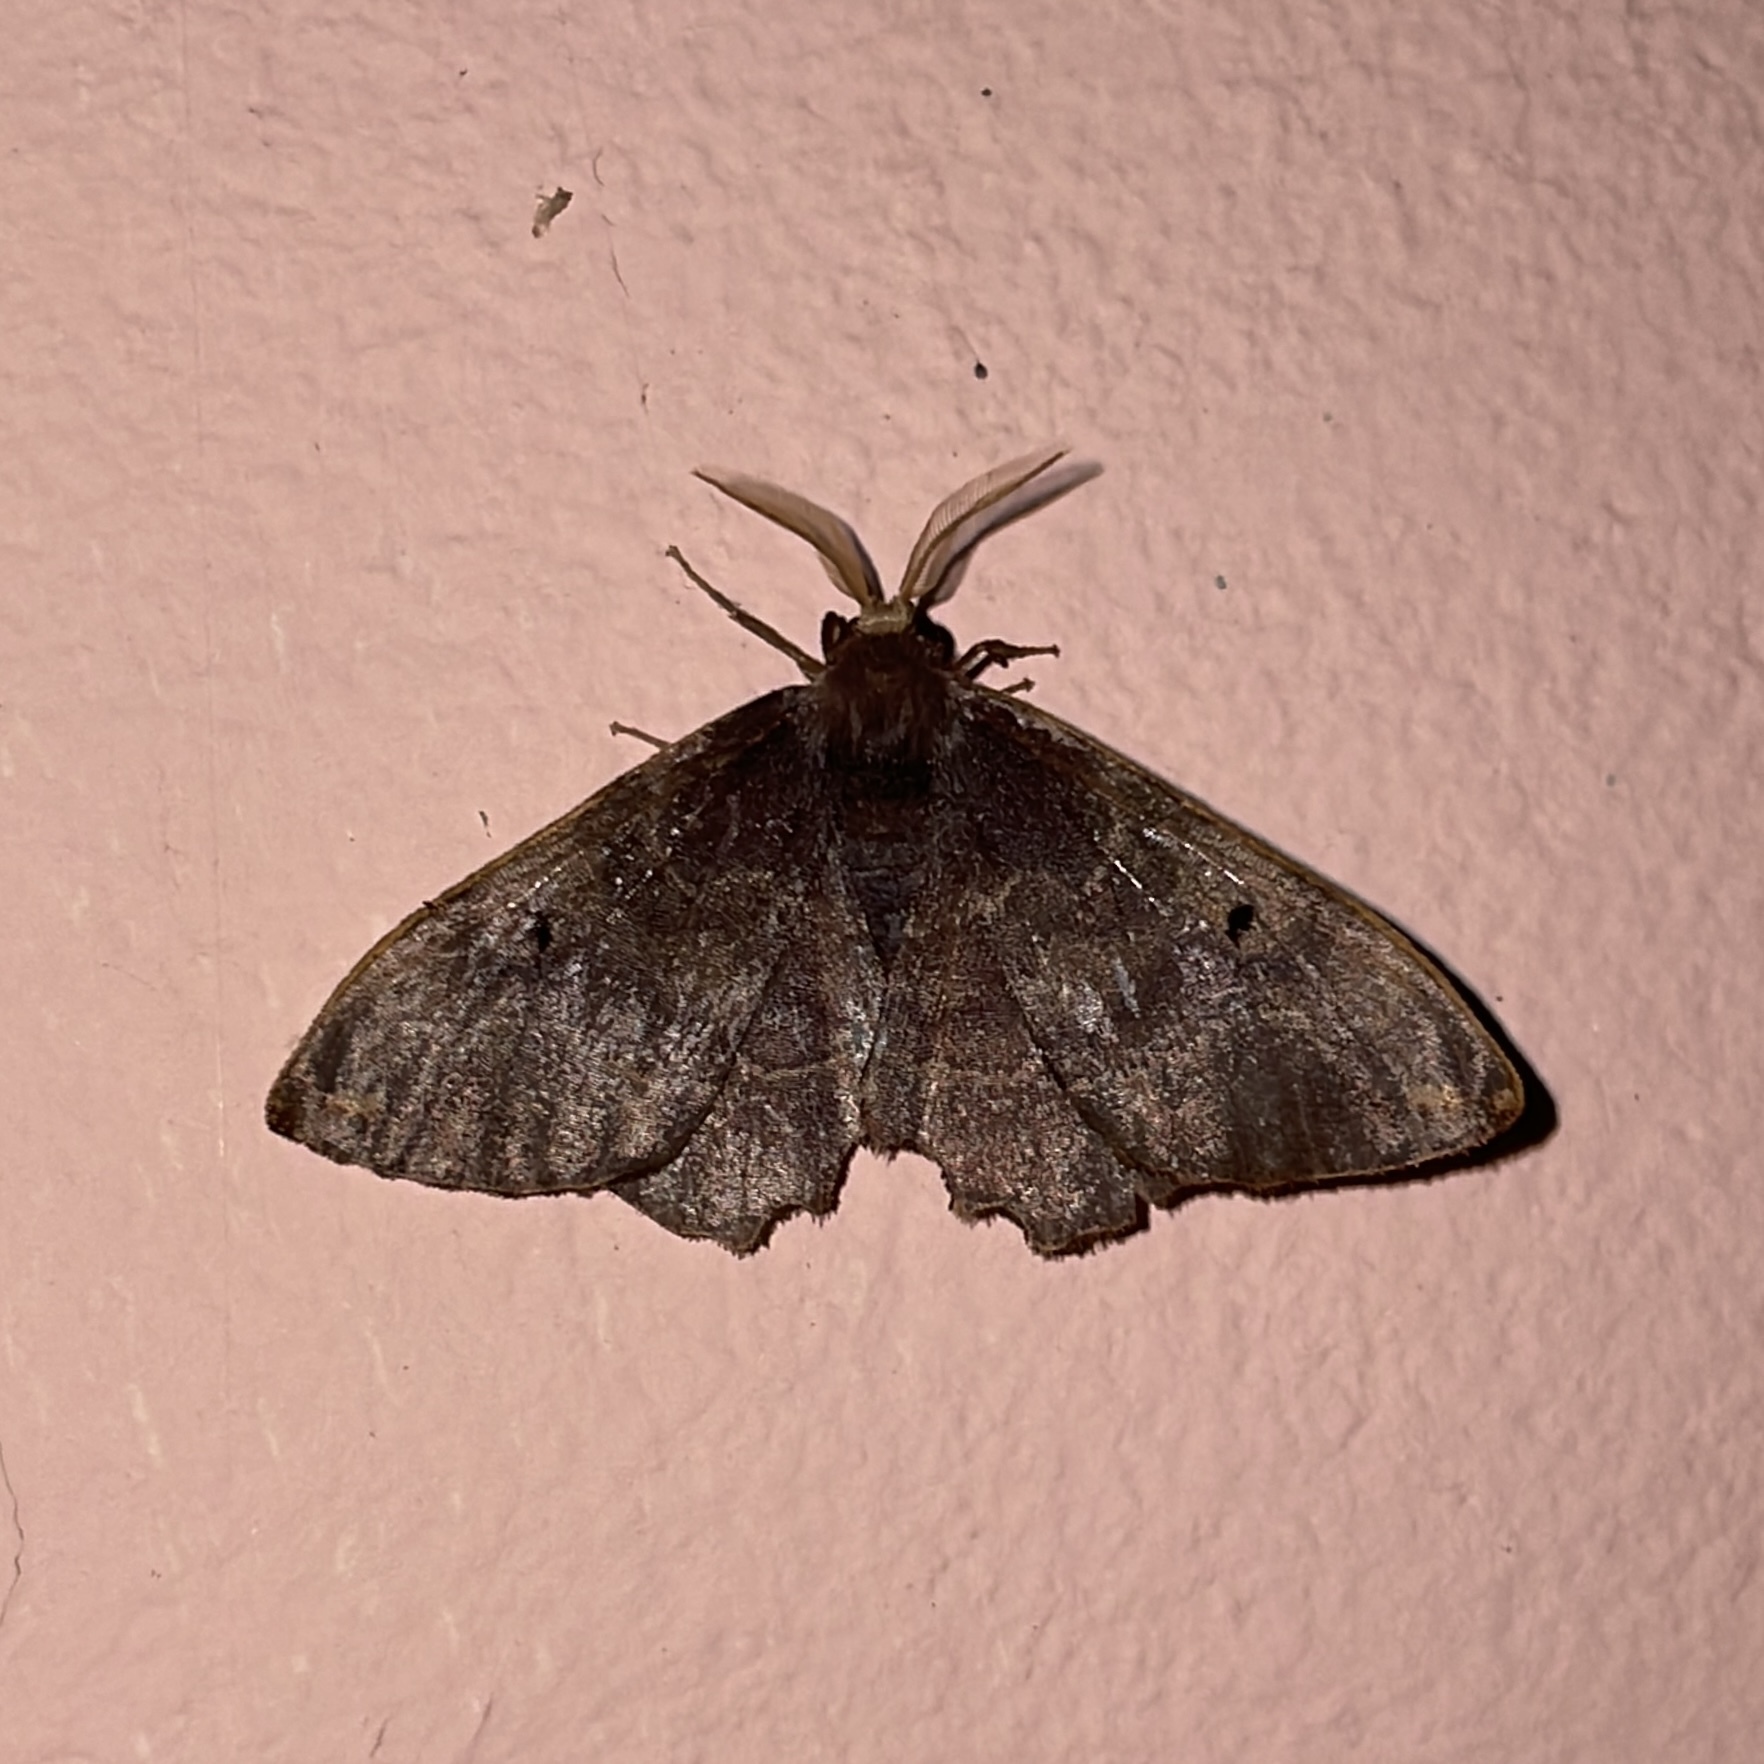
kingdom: Animalia
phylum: Arthropoda
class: Insecta
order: Lepidoptera
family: Phiditiidae
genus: Phiditia
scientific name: Phiditia cuprea
